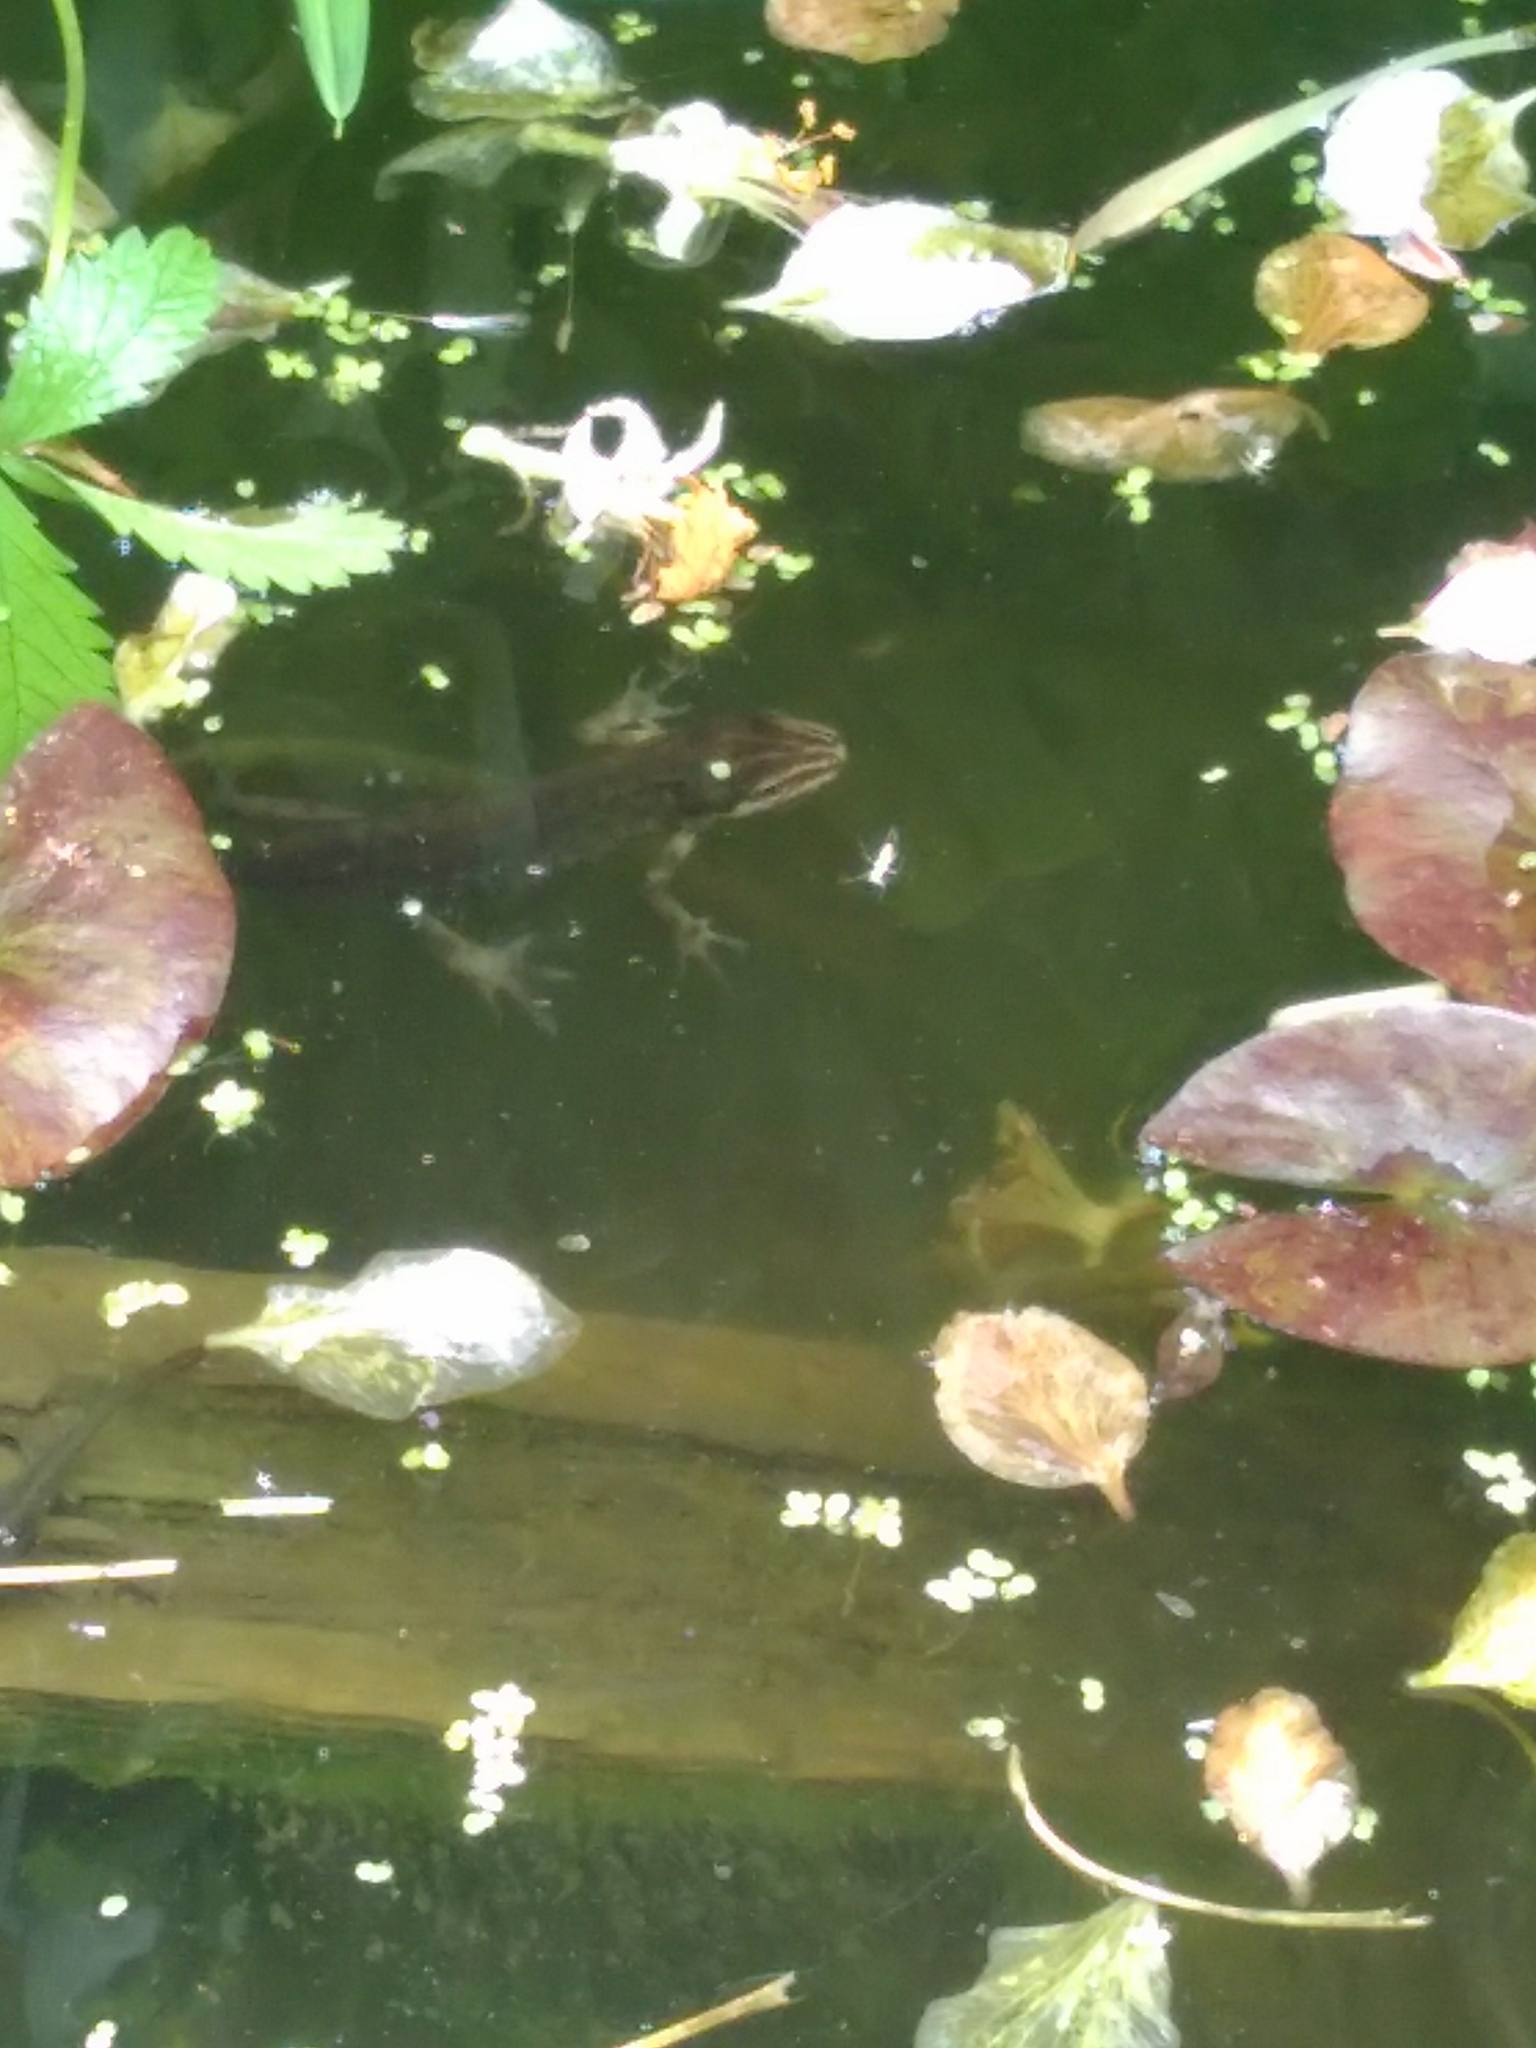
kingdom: Animalia
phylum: Chordata
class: Amphibia
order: Caudata
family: Salamandridae
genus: Lissotriton
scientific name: Lissotriton vulgaris
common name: Smooth newt
